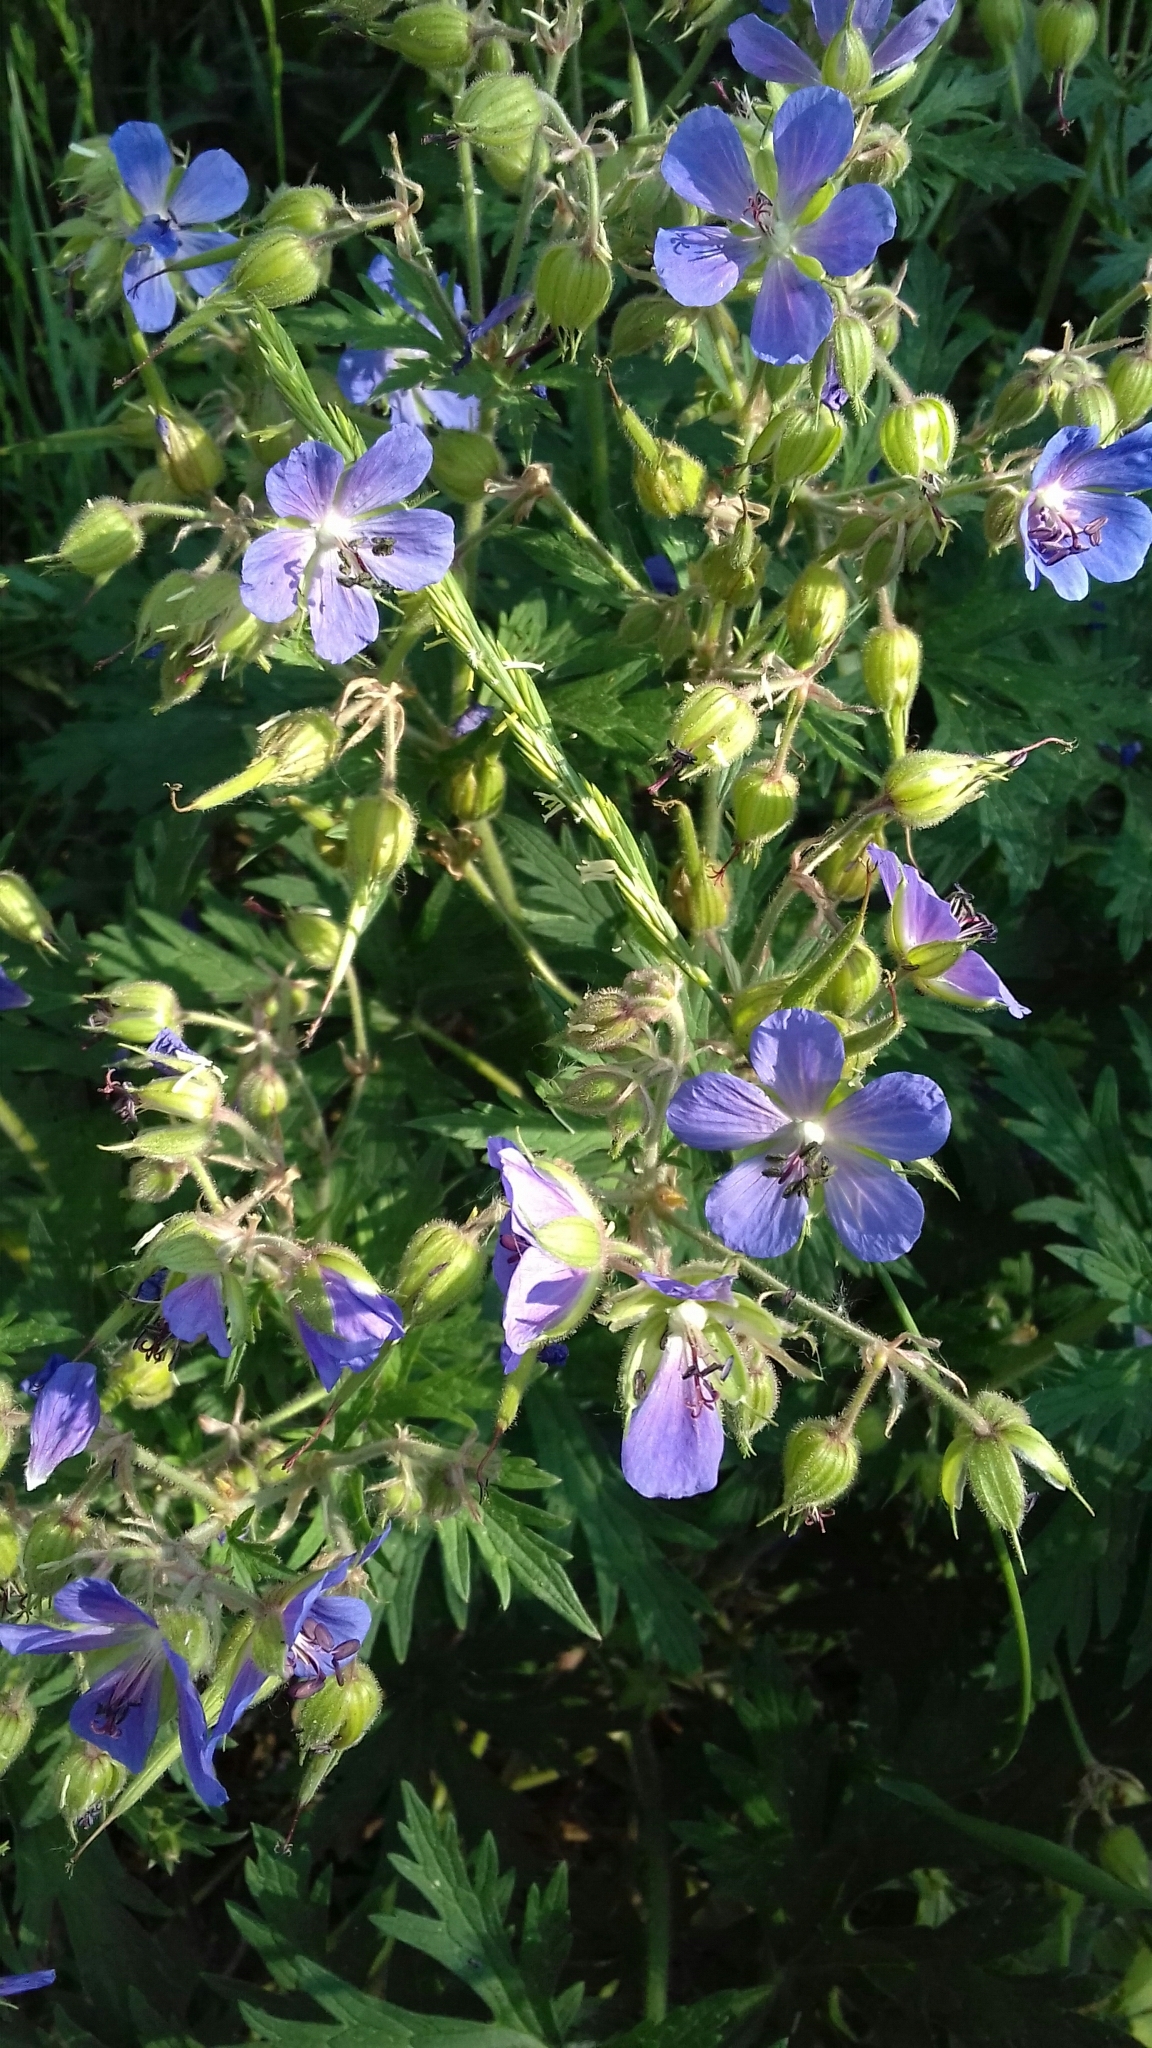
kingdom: Plantae
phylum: Tracheophyta
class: Magnoliopsida
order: Geraniales
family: Geraniaceae
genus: Geranium
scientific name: Geranium pratense
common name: Meadow crane's-bill
